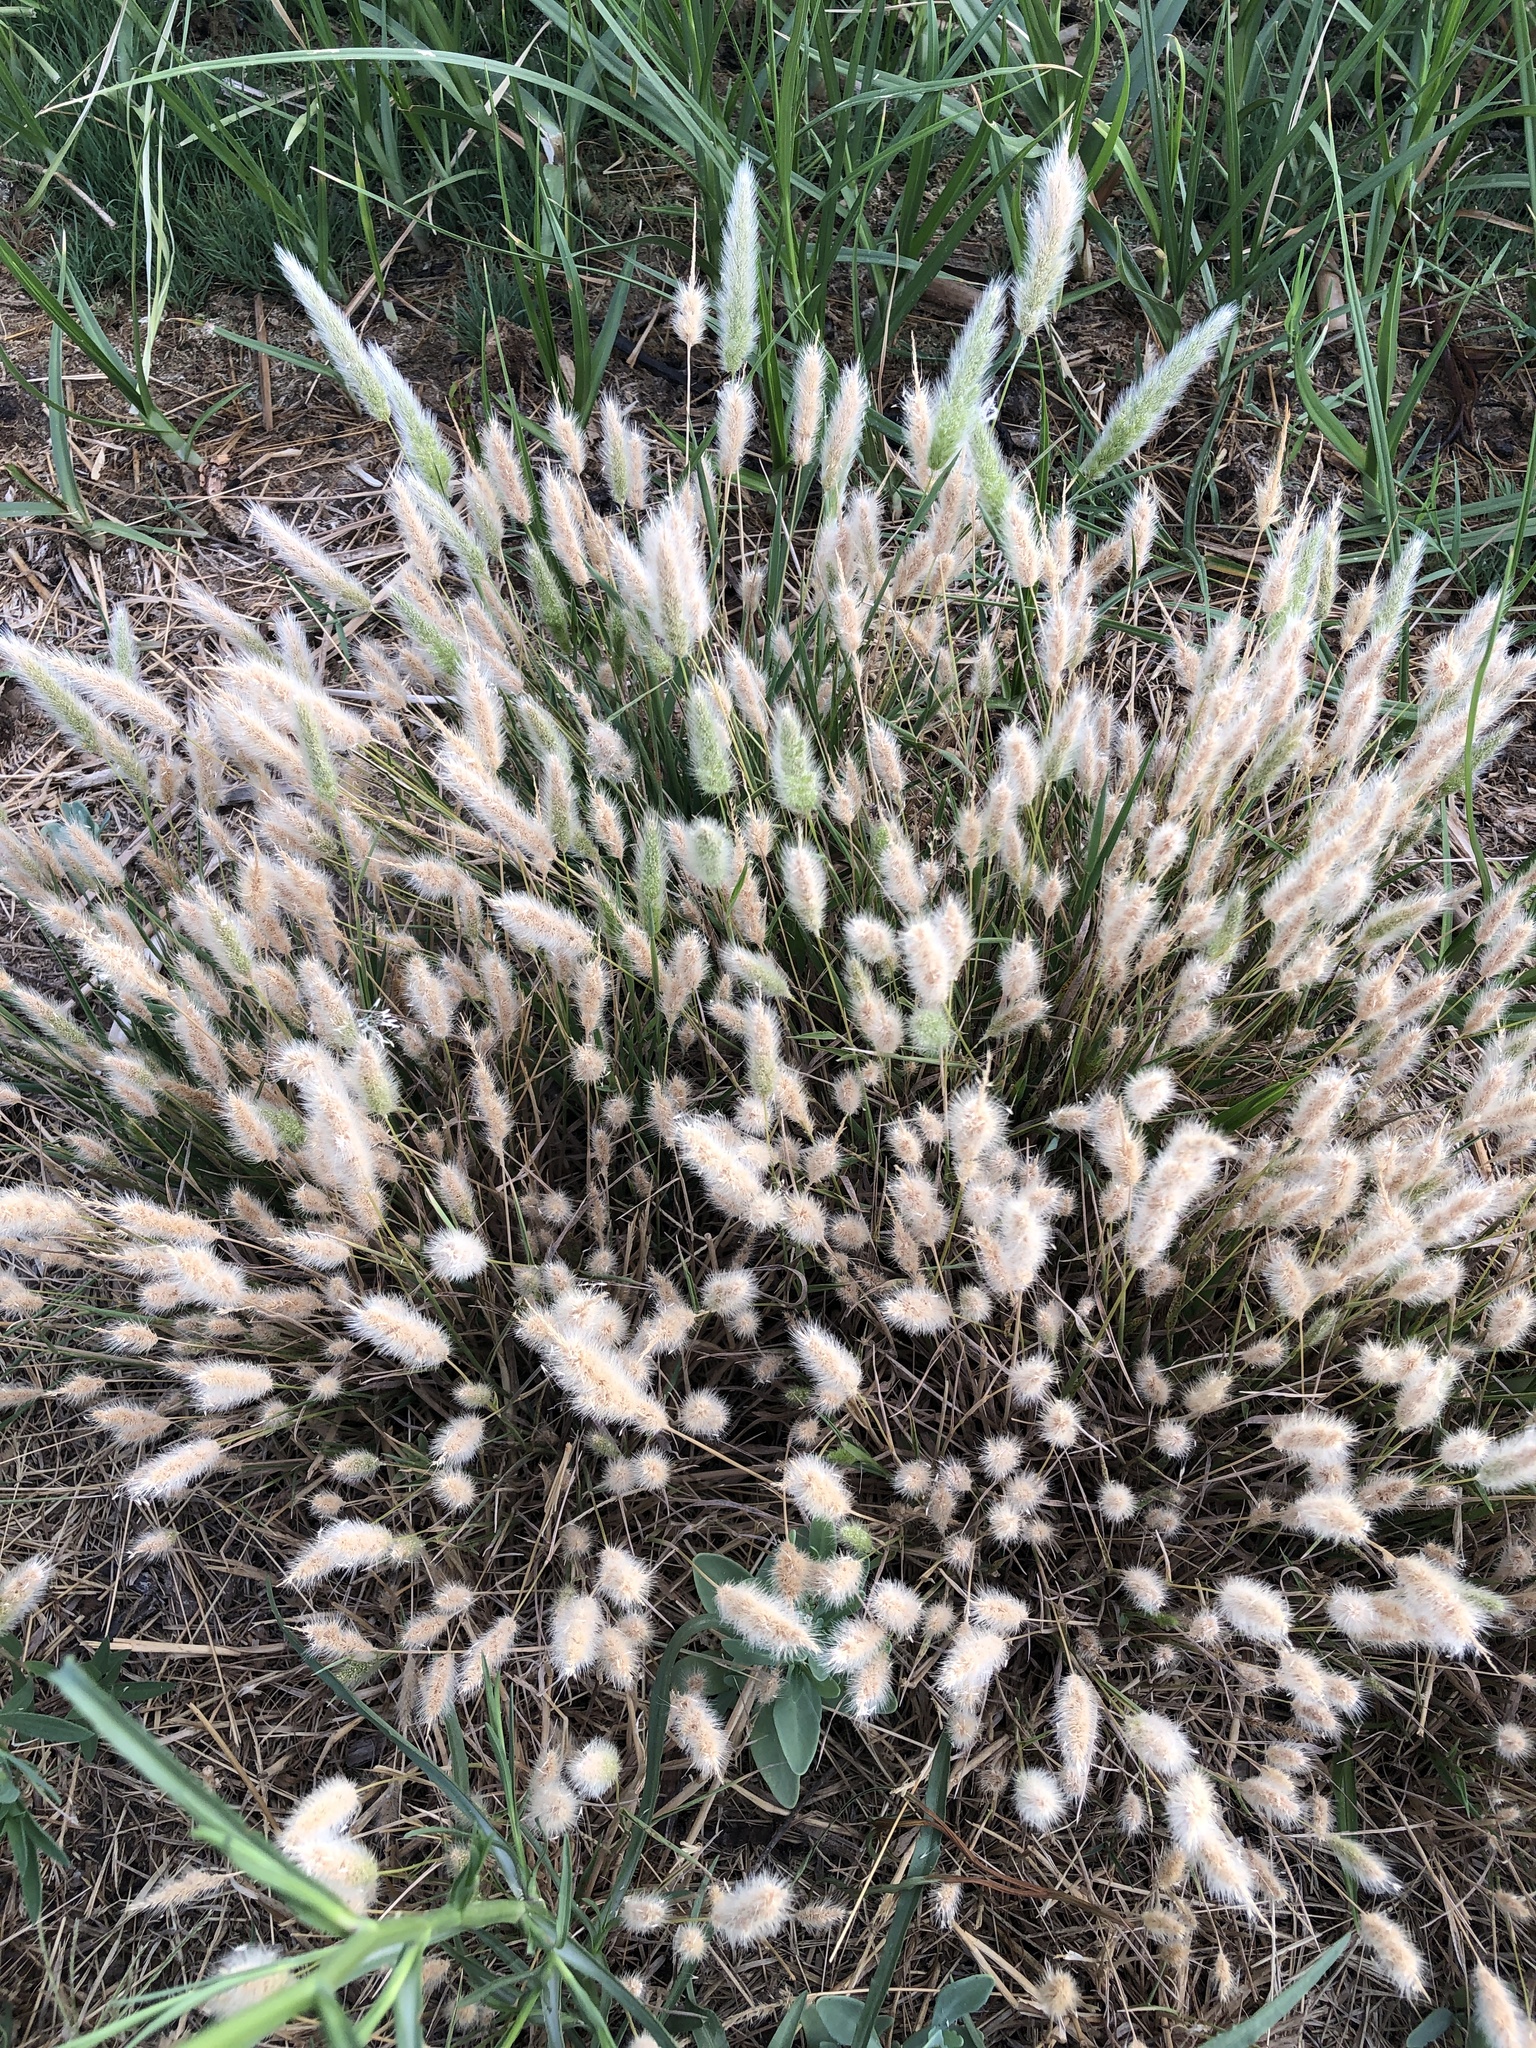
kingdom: Plantae
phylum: Tracheophyta
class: Liliopsida
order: Poales
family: Poaceae
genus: Polypogon
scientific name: Polypogon monspeliensis
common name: Annual rabbitsfoot grass
